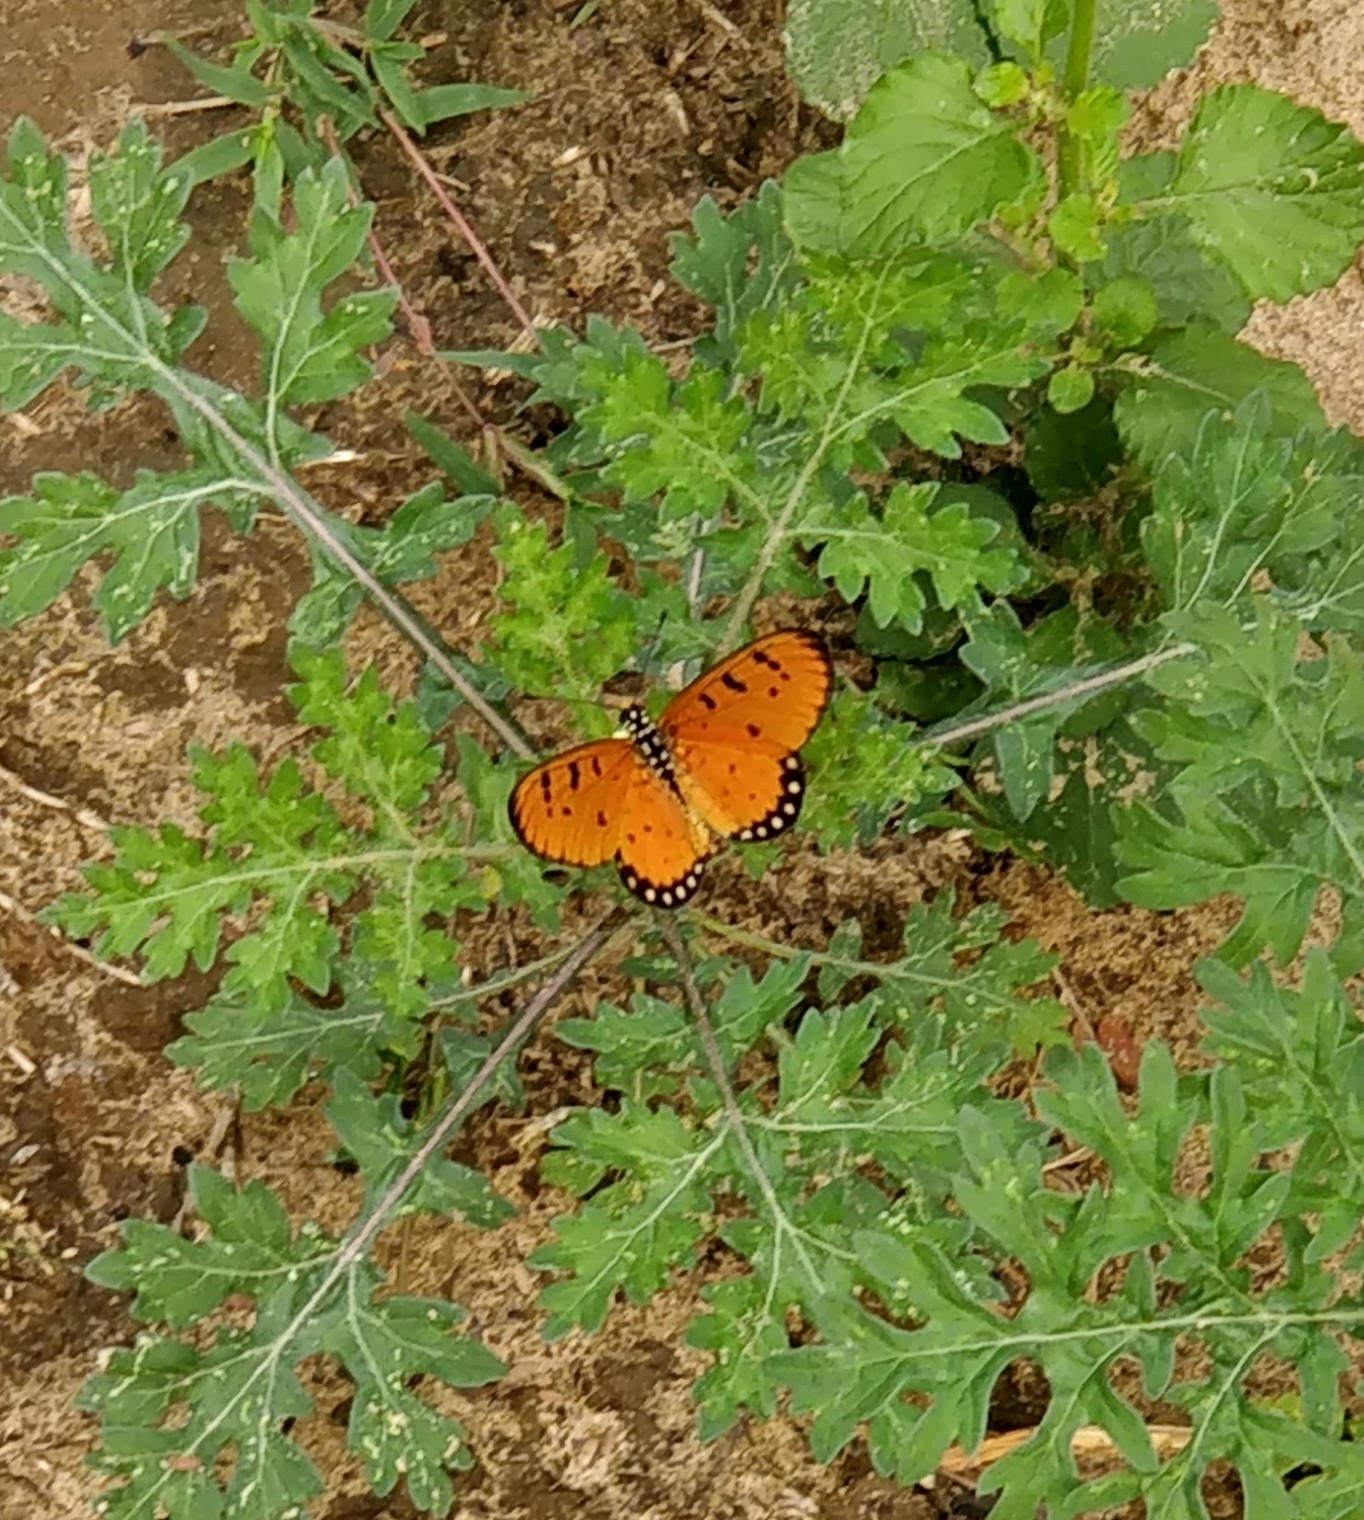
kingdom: Animalia
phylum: Arthropoda
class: Insecta
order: Lepidoptera
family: Nymphalidae
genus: Acraea
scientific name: Acraea terpsicore
